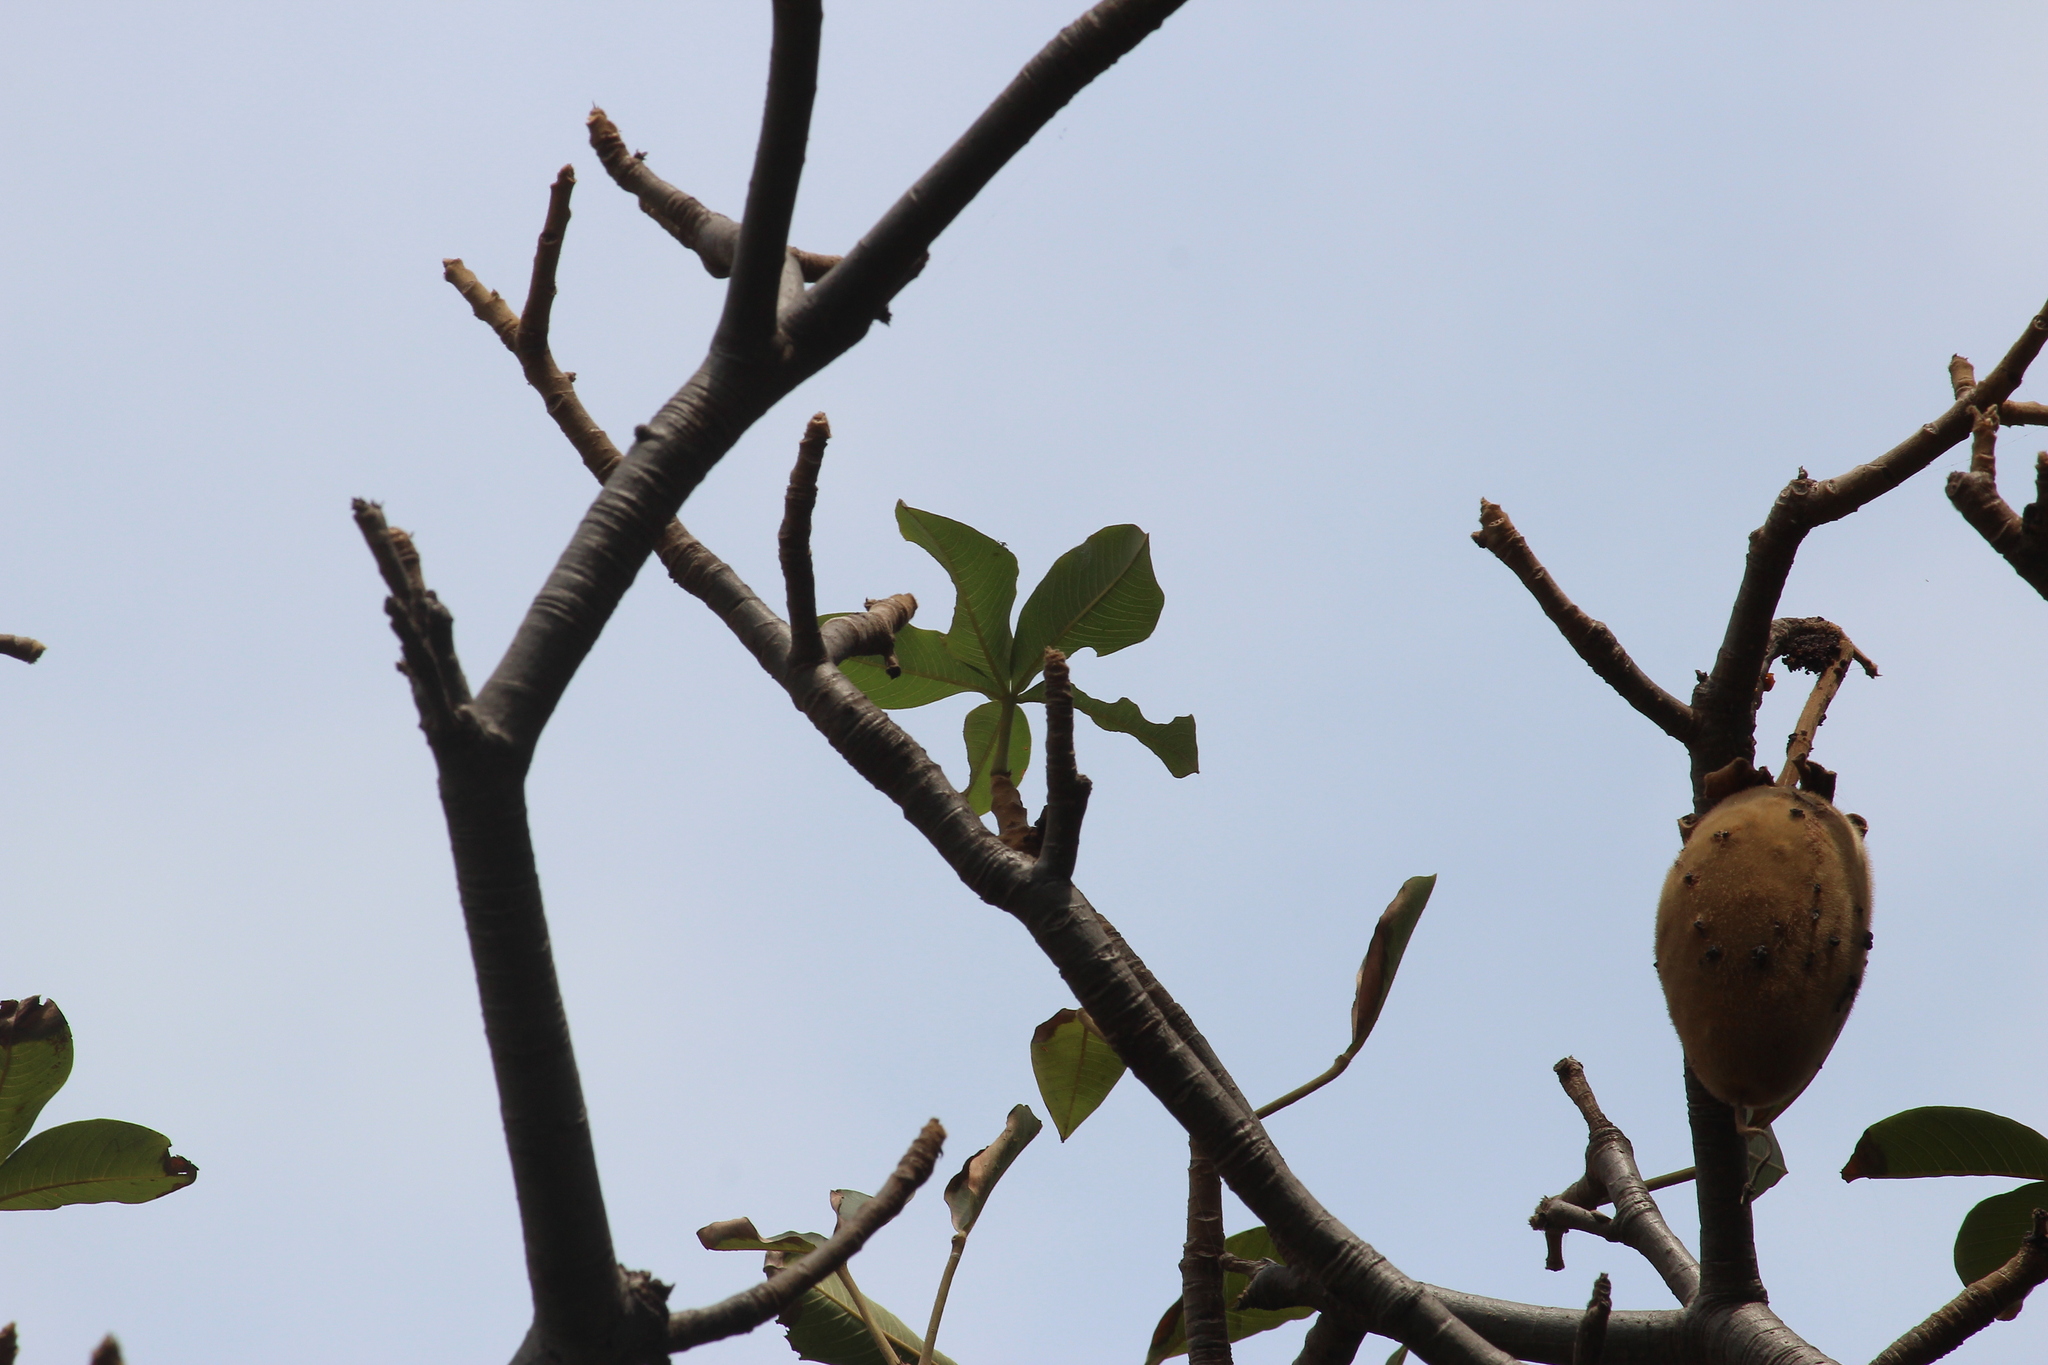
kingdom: Plantae
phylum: Tracheophyta
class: Magnoliopsida
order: Malvales
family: Malvaceae
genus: Adansonia
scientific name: Adansonia digitata
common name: Dead-rat-tree
